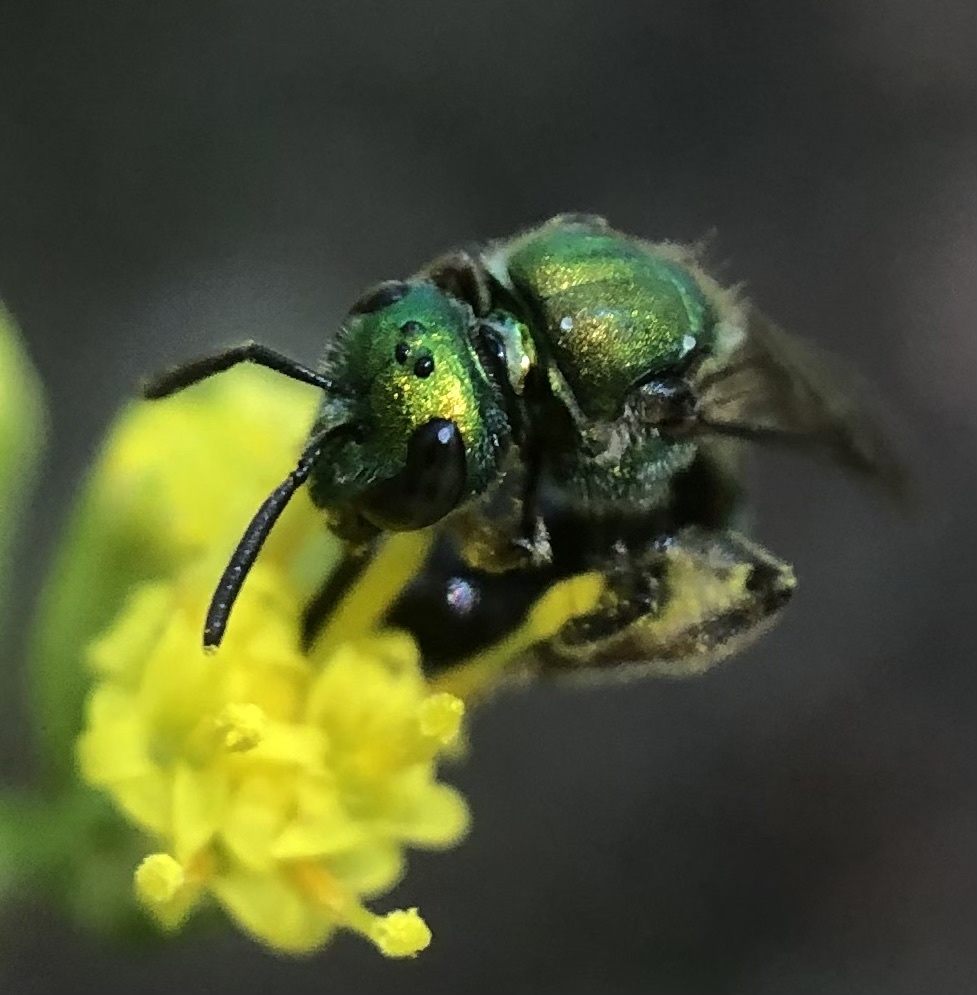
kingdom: Animalia
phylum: Arthropoda
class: Insecta
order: Hymenoptera
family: Halictidae
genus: Augochlora
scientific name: Augochlora pura
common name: Pure green sweat bee
